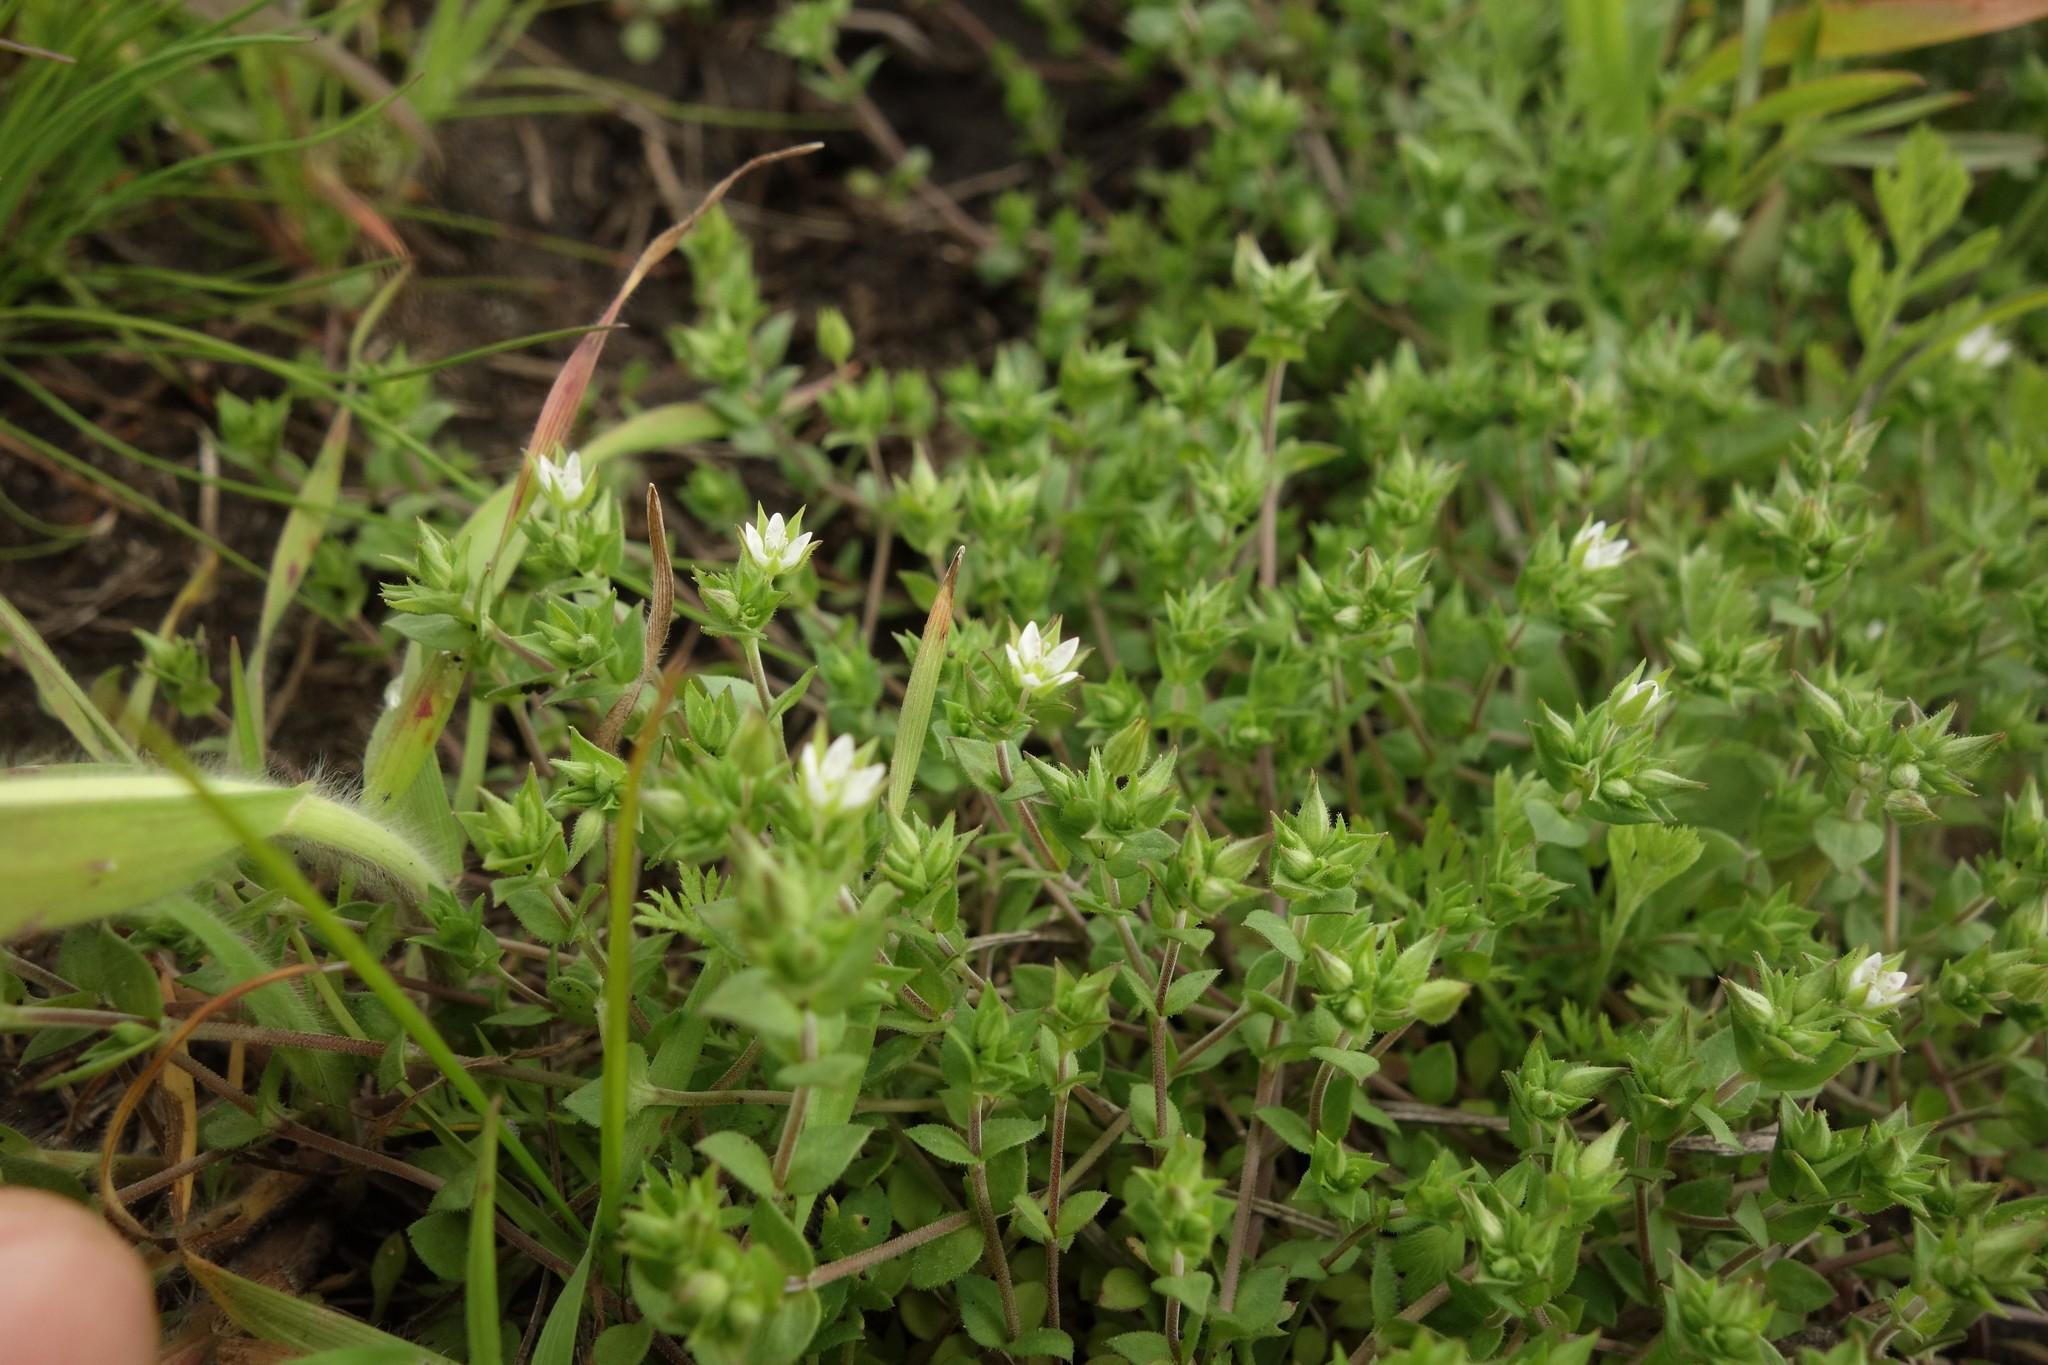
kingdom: Plantae
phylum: Tracheophyta
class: Magnoliopsida
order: Caryophyllales
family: Caryophyllaceae
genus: Arenaria
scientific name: Arenaria serpyllifolia
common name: Thyme-leaved sandwort
